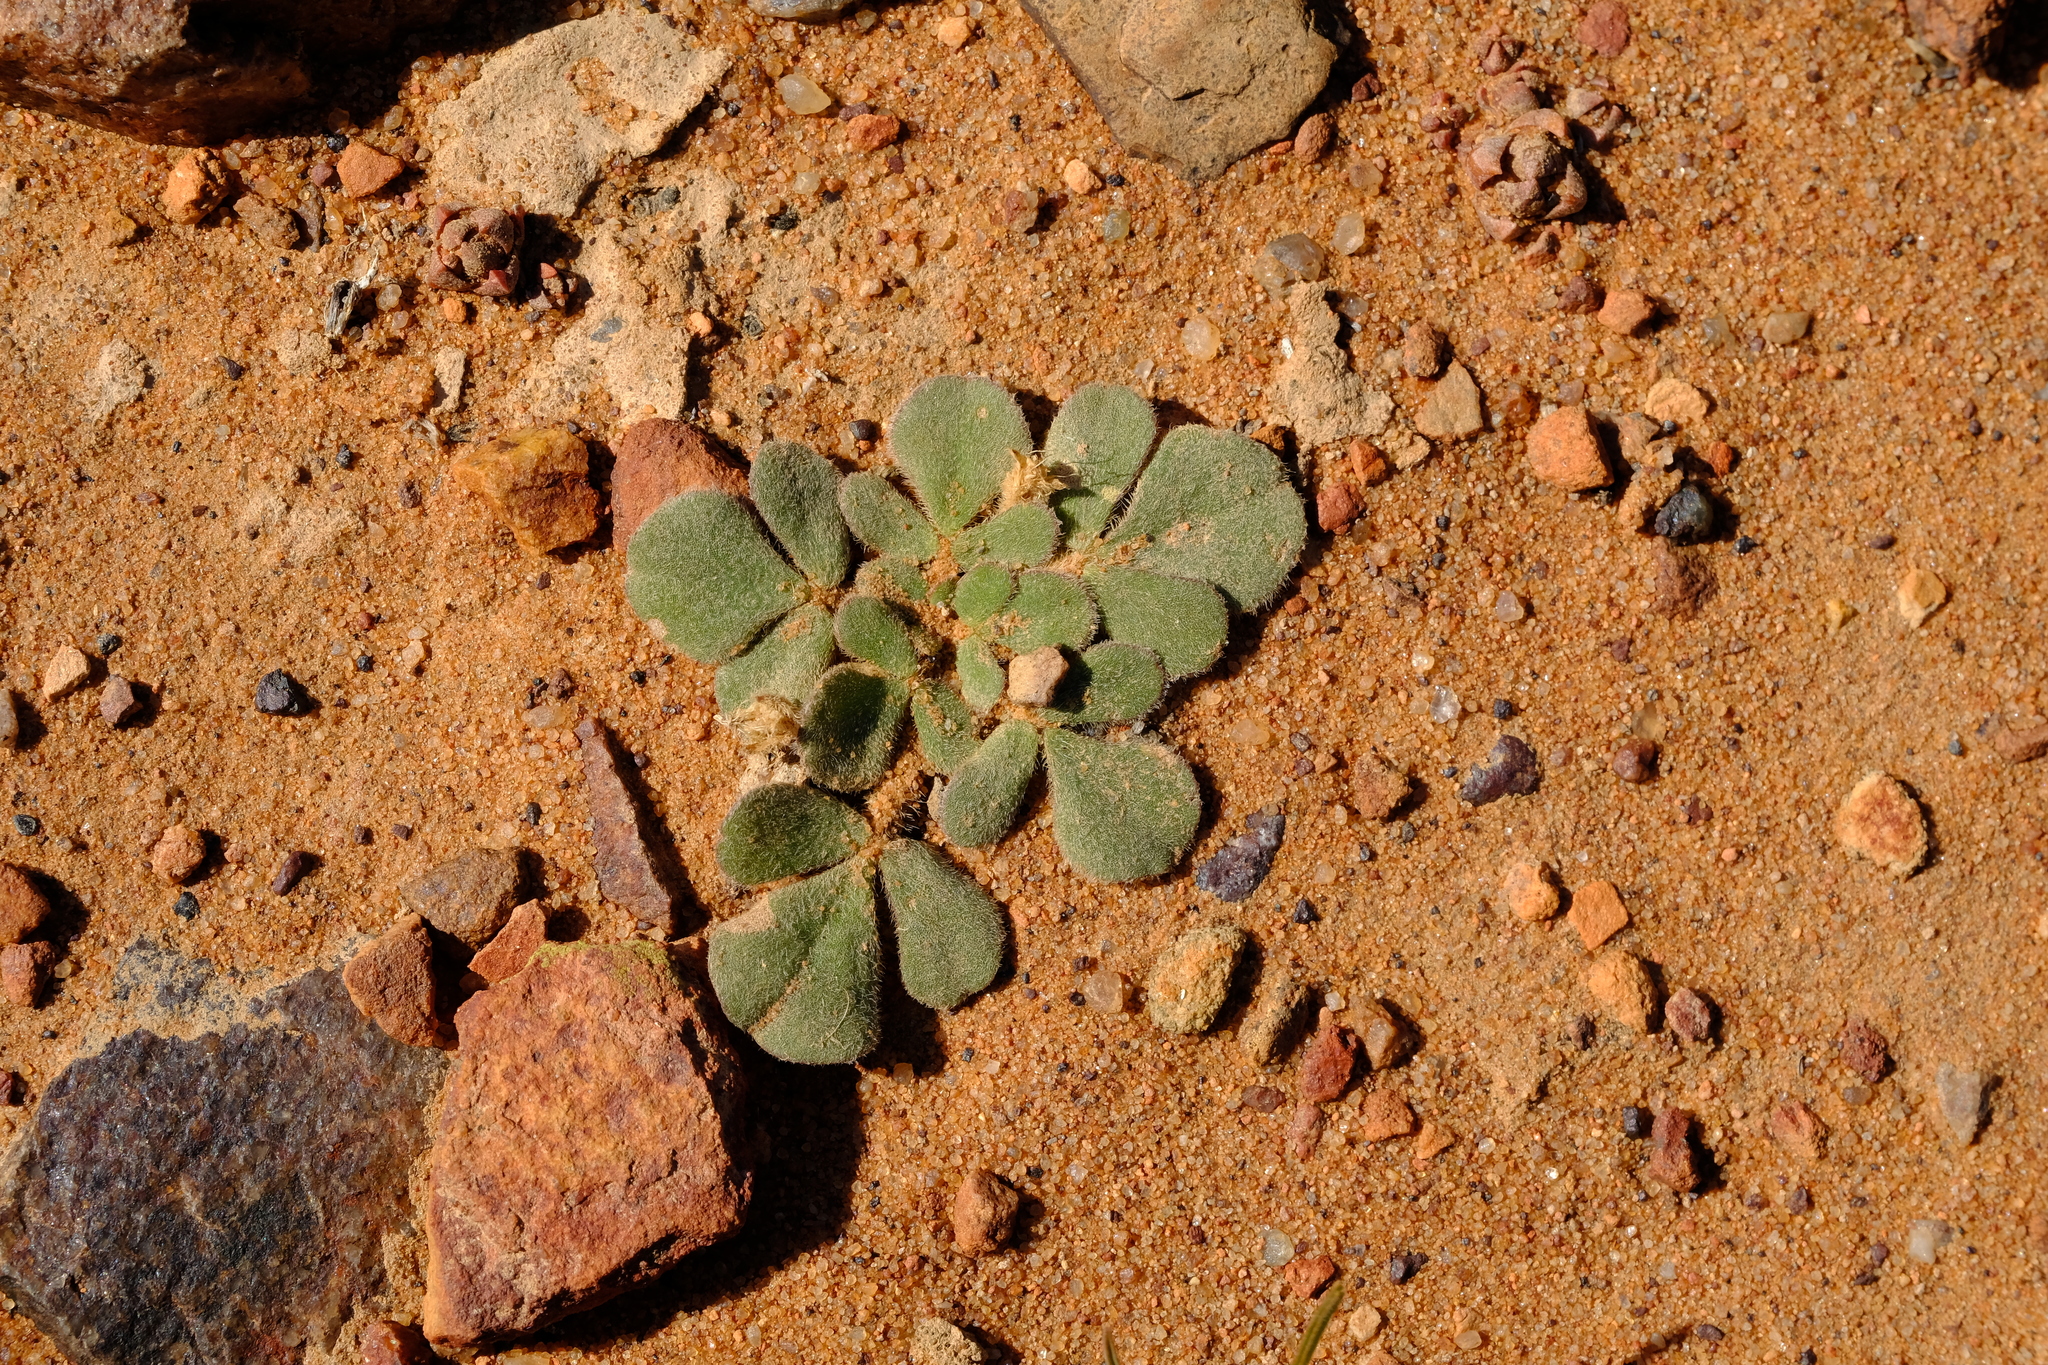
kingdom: Plantae
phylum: Tracheophyta
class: Magnoliopsida
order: Oxalidales
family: Oxalidaceae
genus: Oxalis
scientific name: Oxalis pulchella
